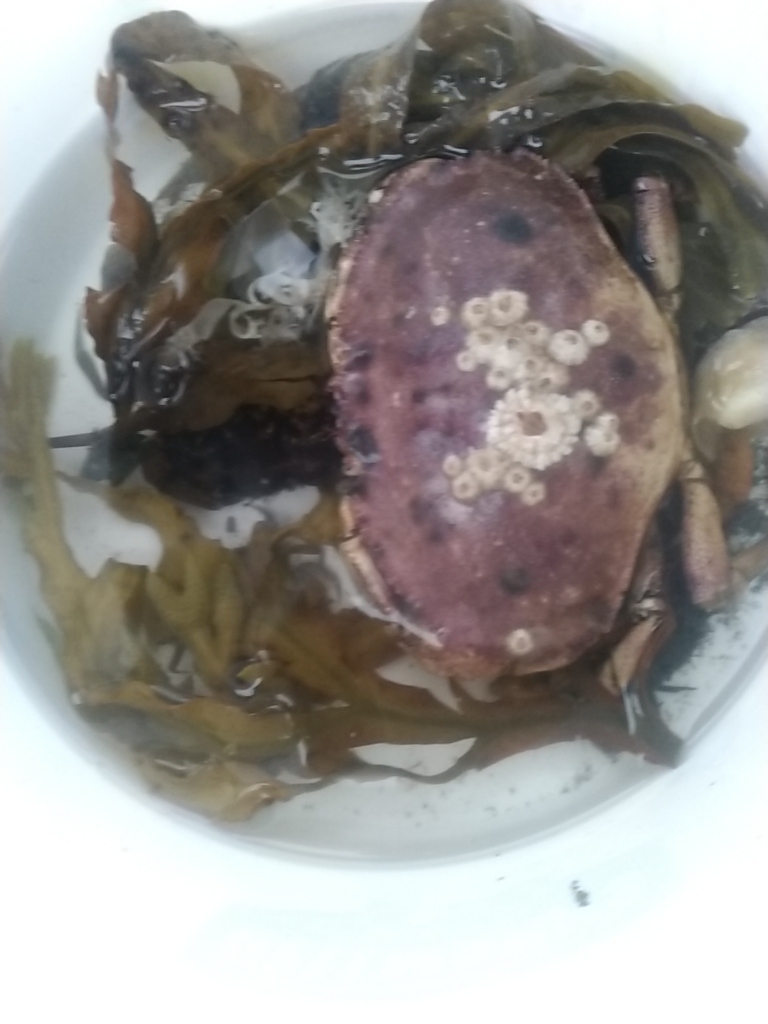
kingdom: Animalia
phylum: Arthropoda
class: Malacostraca
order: Decapoda
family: Cancridae
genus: Cancer
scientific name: Cancer borealis
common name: Jonah crab
